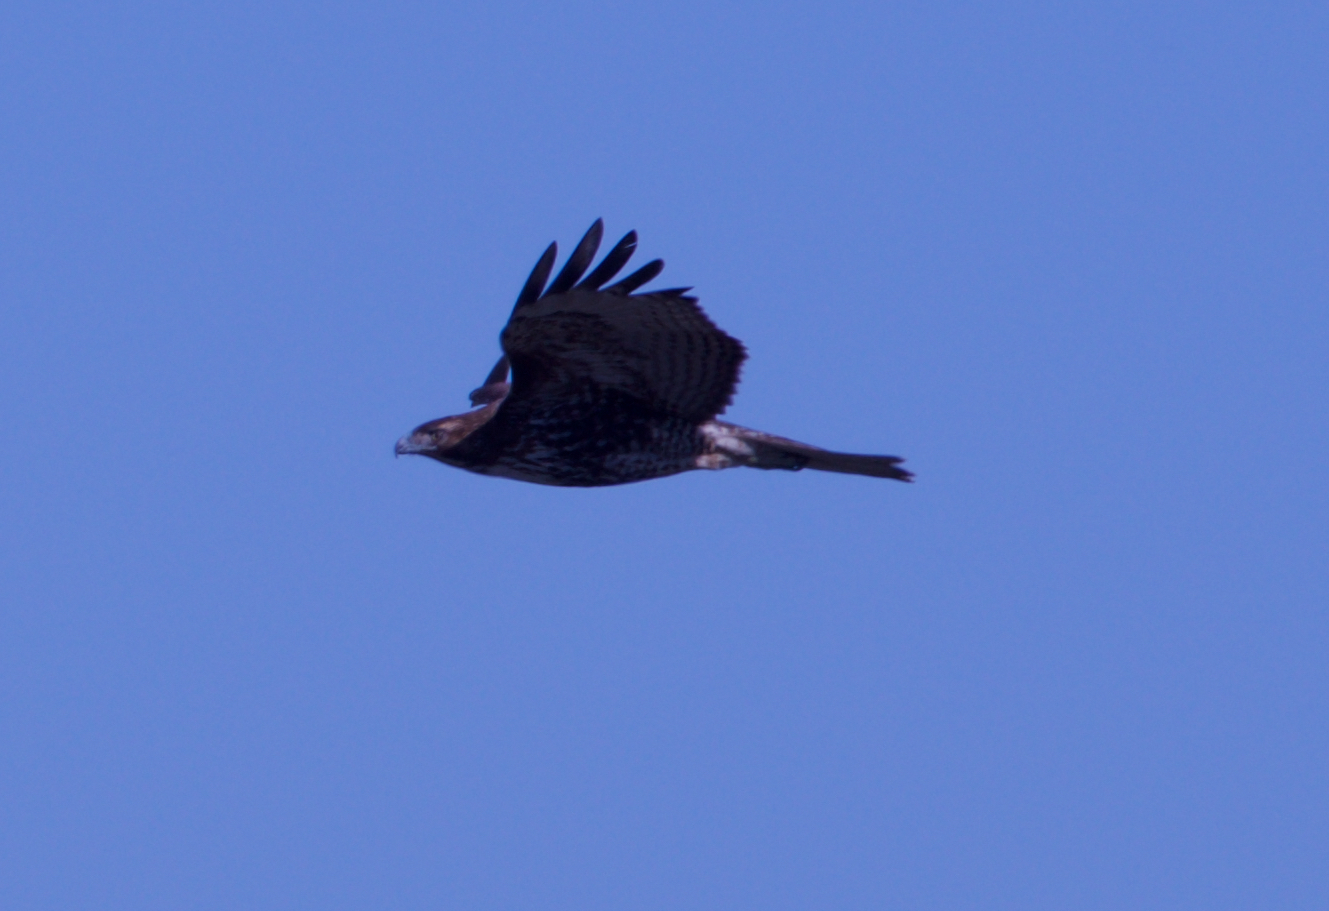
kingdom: Animalia
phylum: Chordata
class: Aves
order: Accipitriformes
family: Accipitridae
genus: Buteo
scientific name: Buteo jamaicensis
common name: Red-tailed hawk
